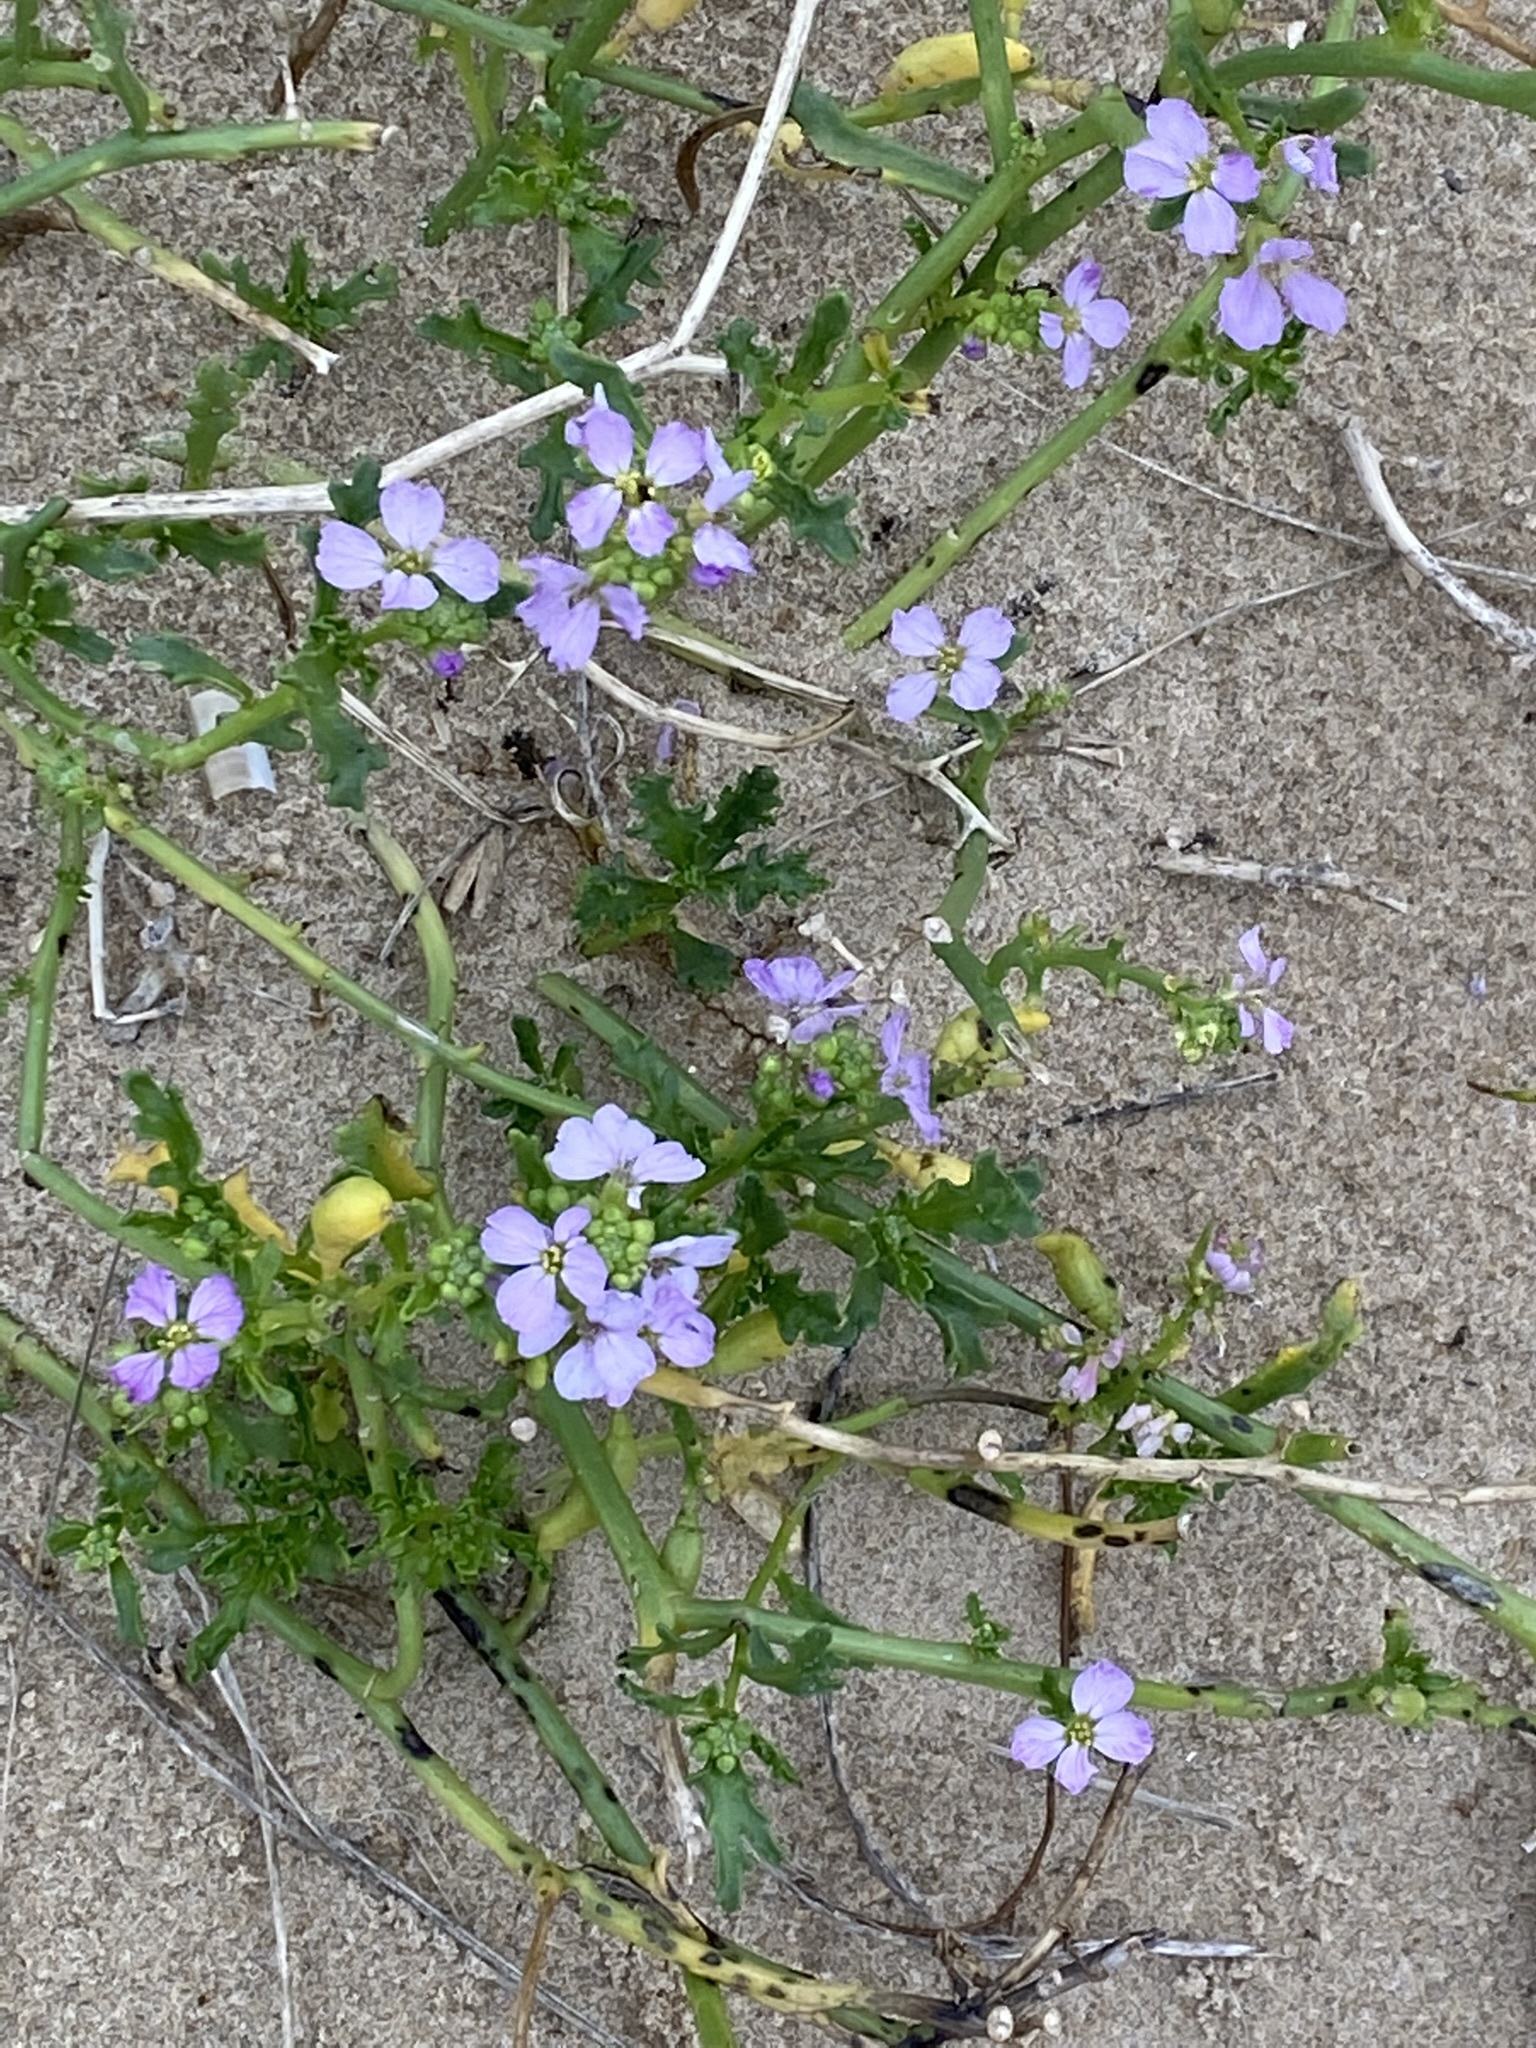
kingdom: Plantae
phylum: Tracheophyta
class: Magnoliopsida
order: Brassicales
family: Brassicaceae
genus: Cakile
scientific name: Cakile maritima
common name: Sea rocket
